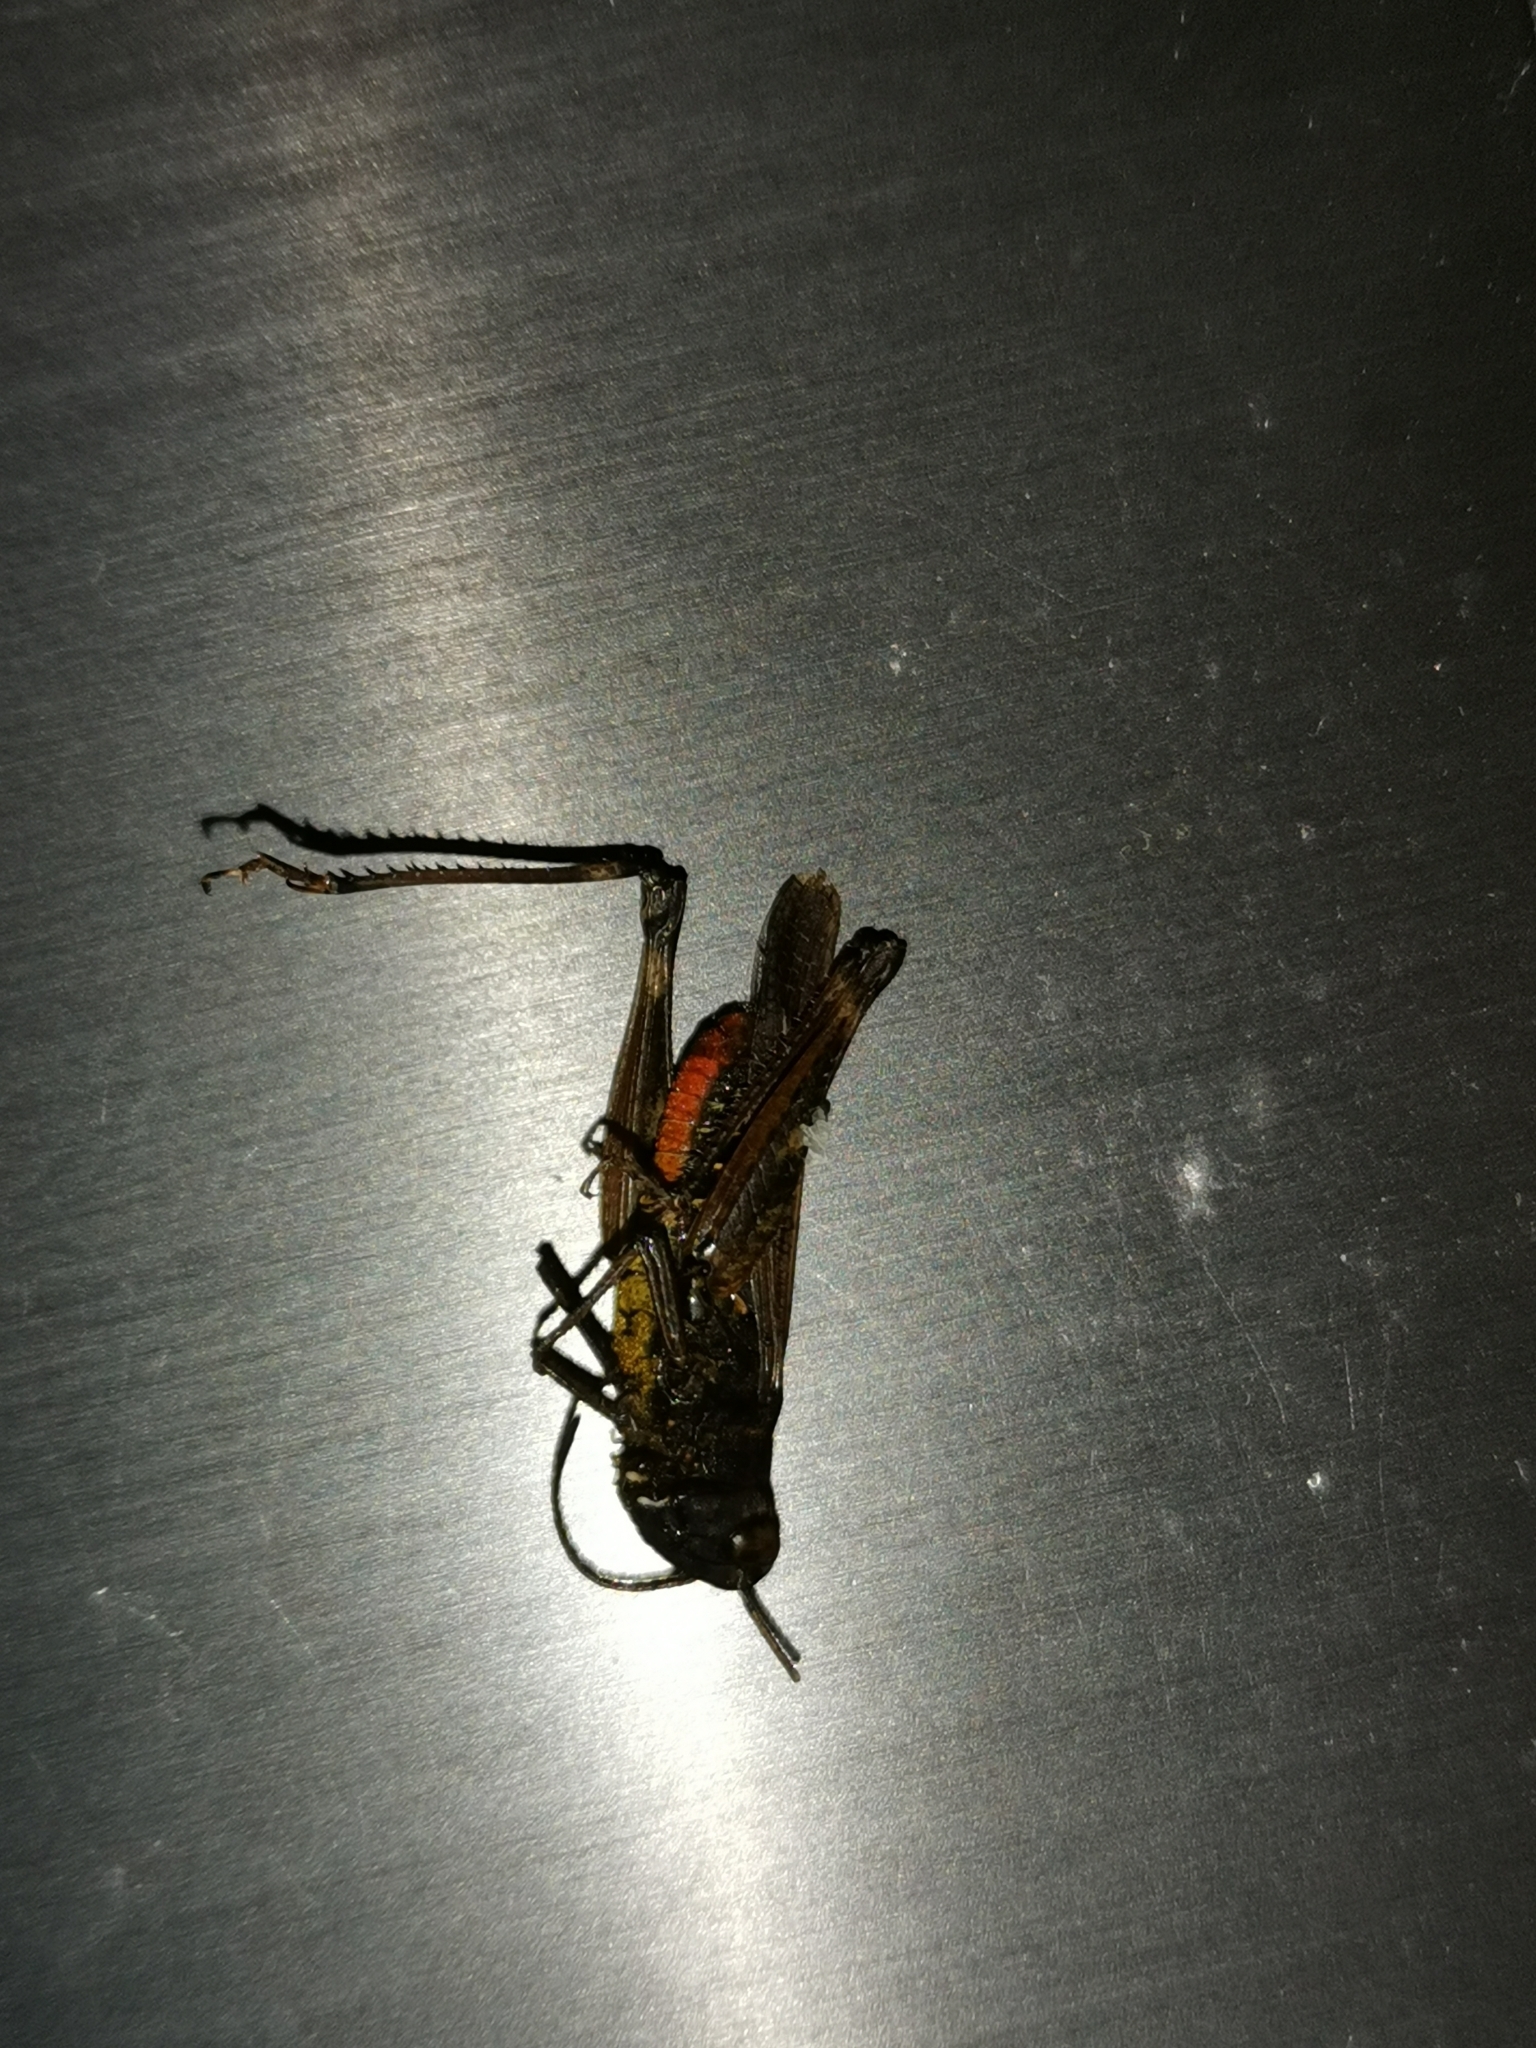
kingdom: Animalia
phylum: Arthropoda
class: Insecta
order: Orthoptera
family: Acrididae
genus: Omocestus
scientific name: Omocestus rufipes
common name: Woodland grasshopper
